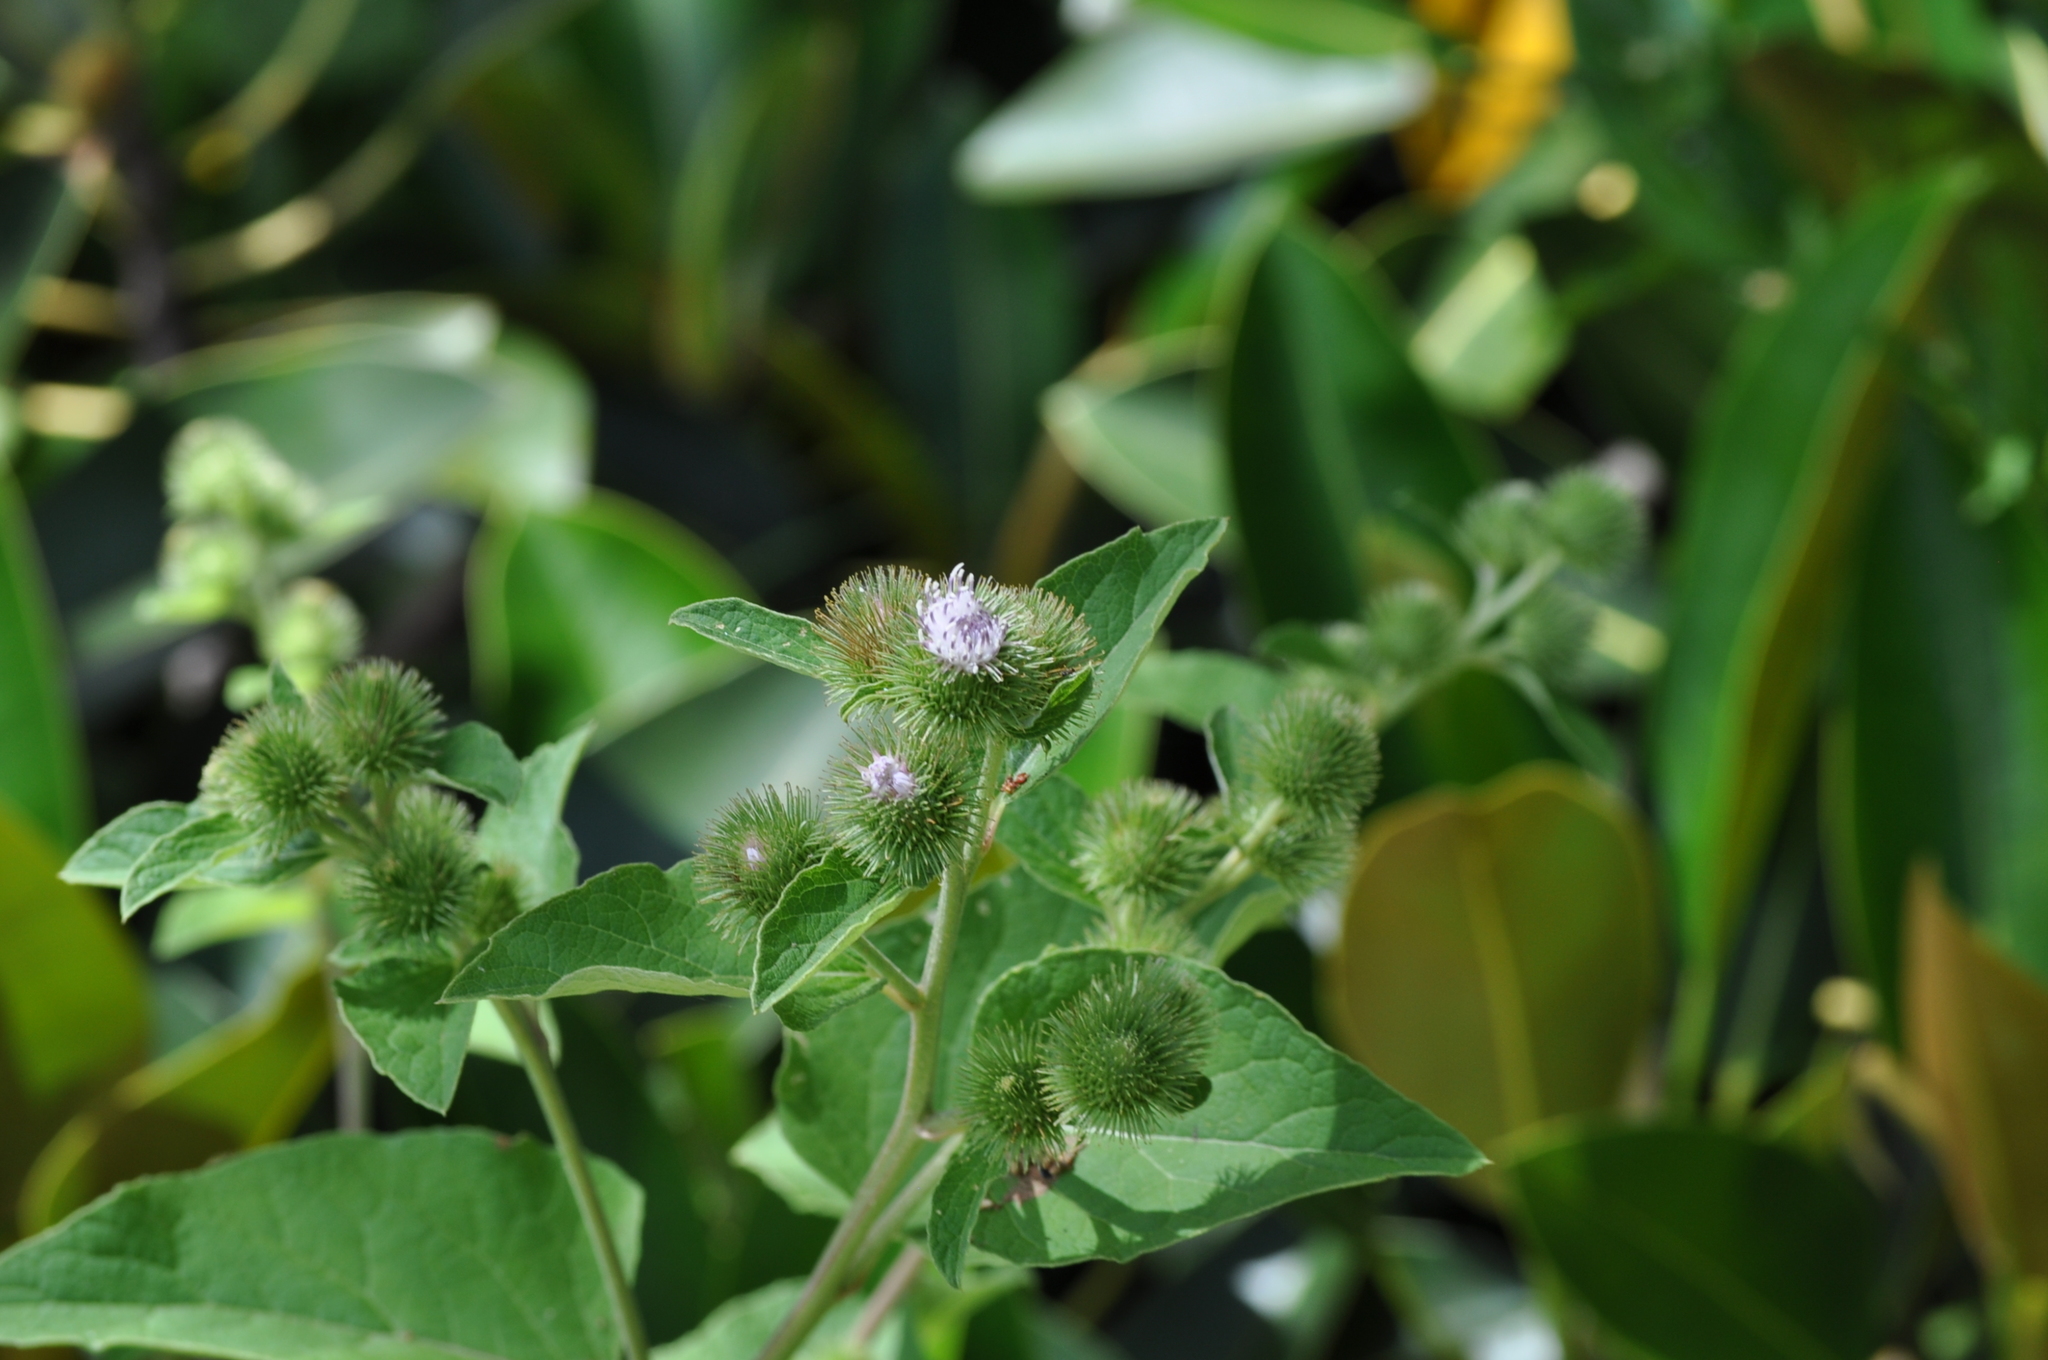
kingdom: Plantae
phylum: Tracheophyta
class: Magnoliopsida
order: Asterales
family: Asteraceae
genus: Arctium
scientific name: Arctium lappa
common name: Greater burdock
